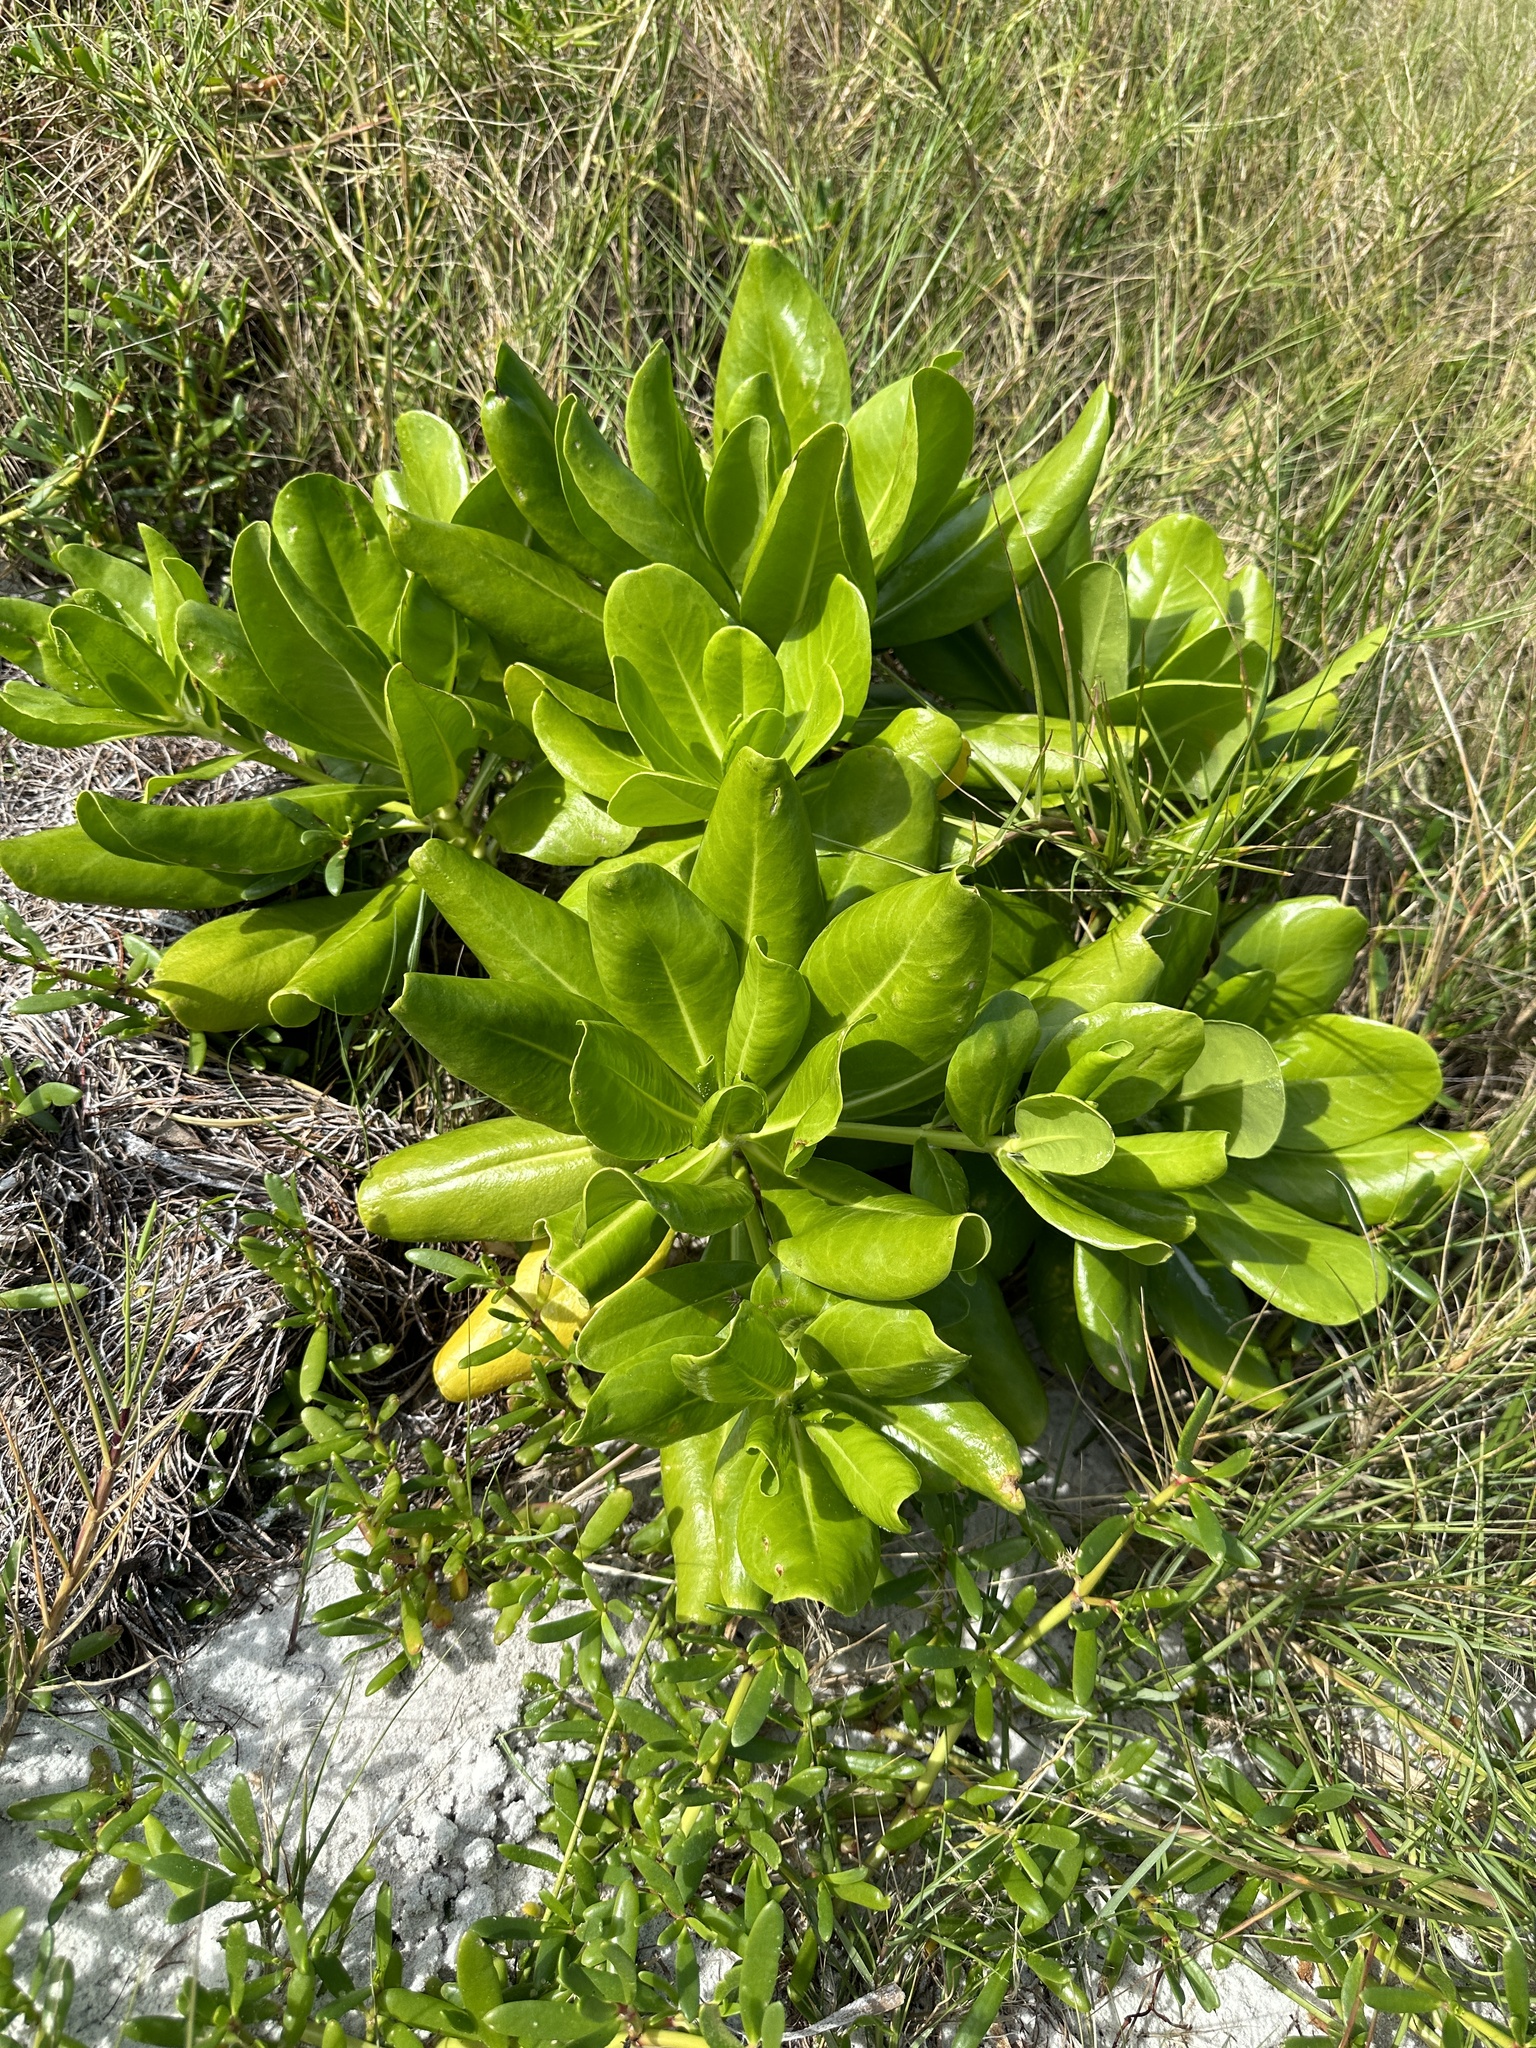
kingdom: Plantae
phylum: Tracheophyta
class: Magnoliopsida
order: Asterales
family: Goodeniaceae
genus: Scaevola
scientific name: Scaevola taccada
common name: Sea lettucetree
